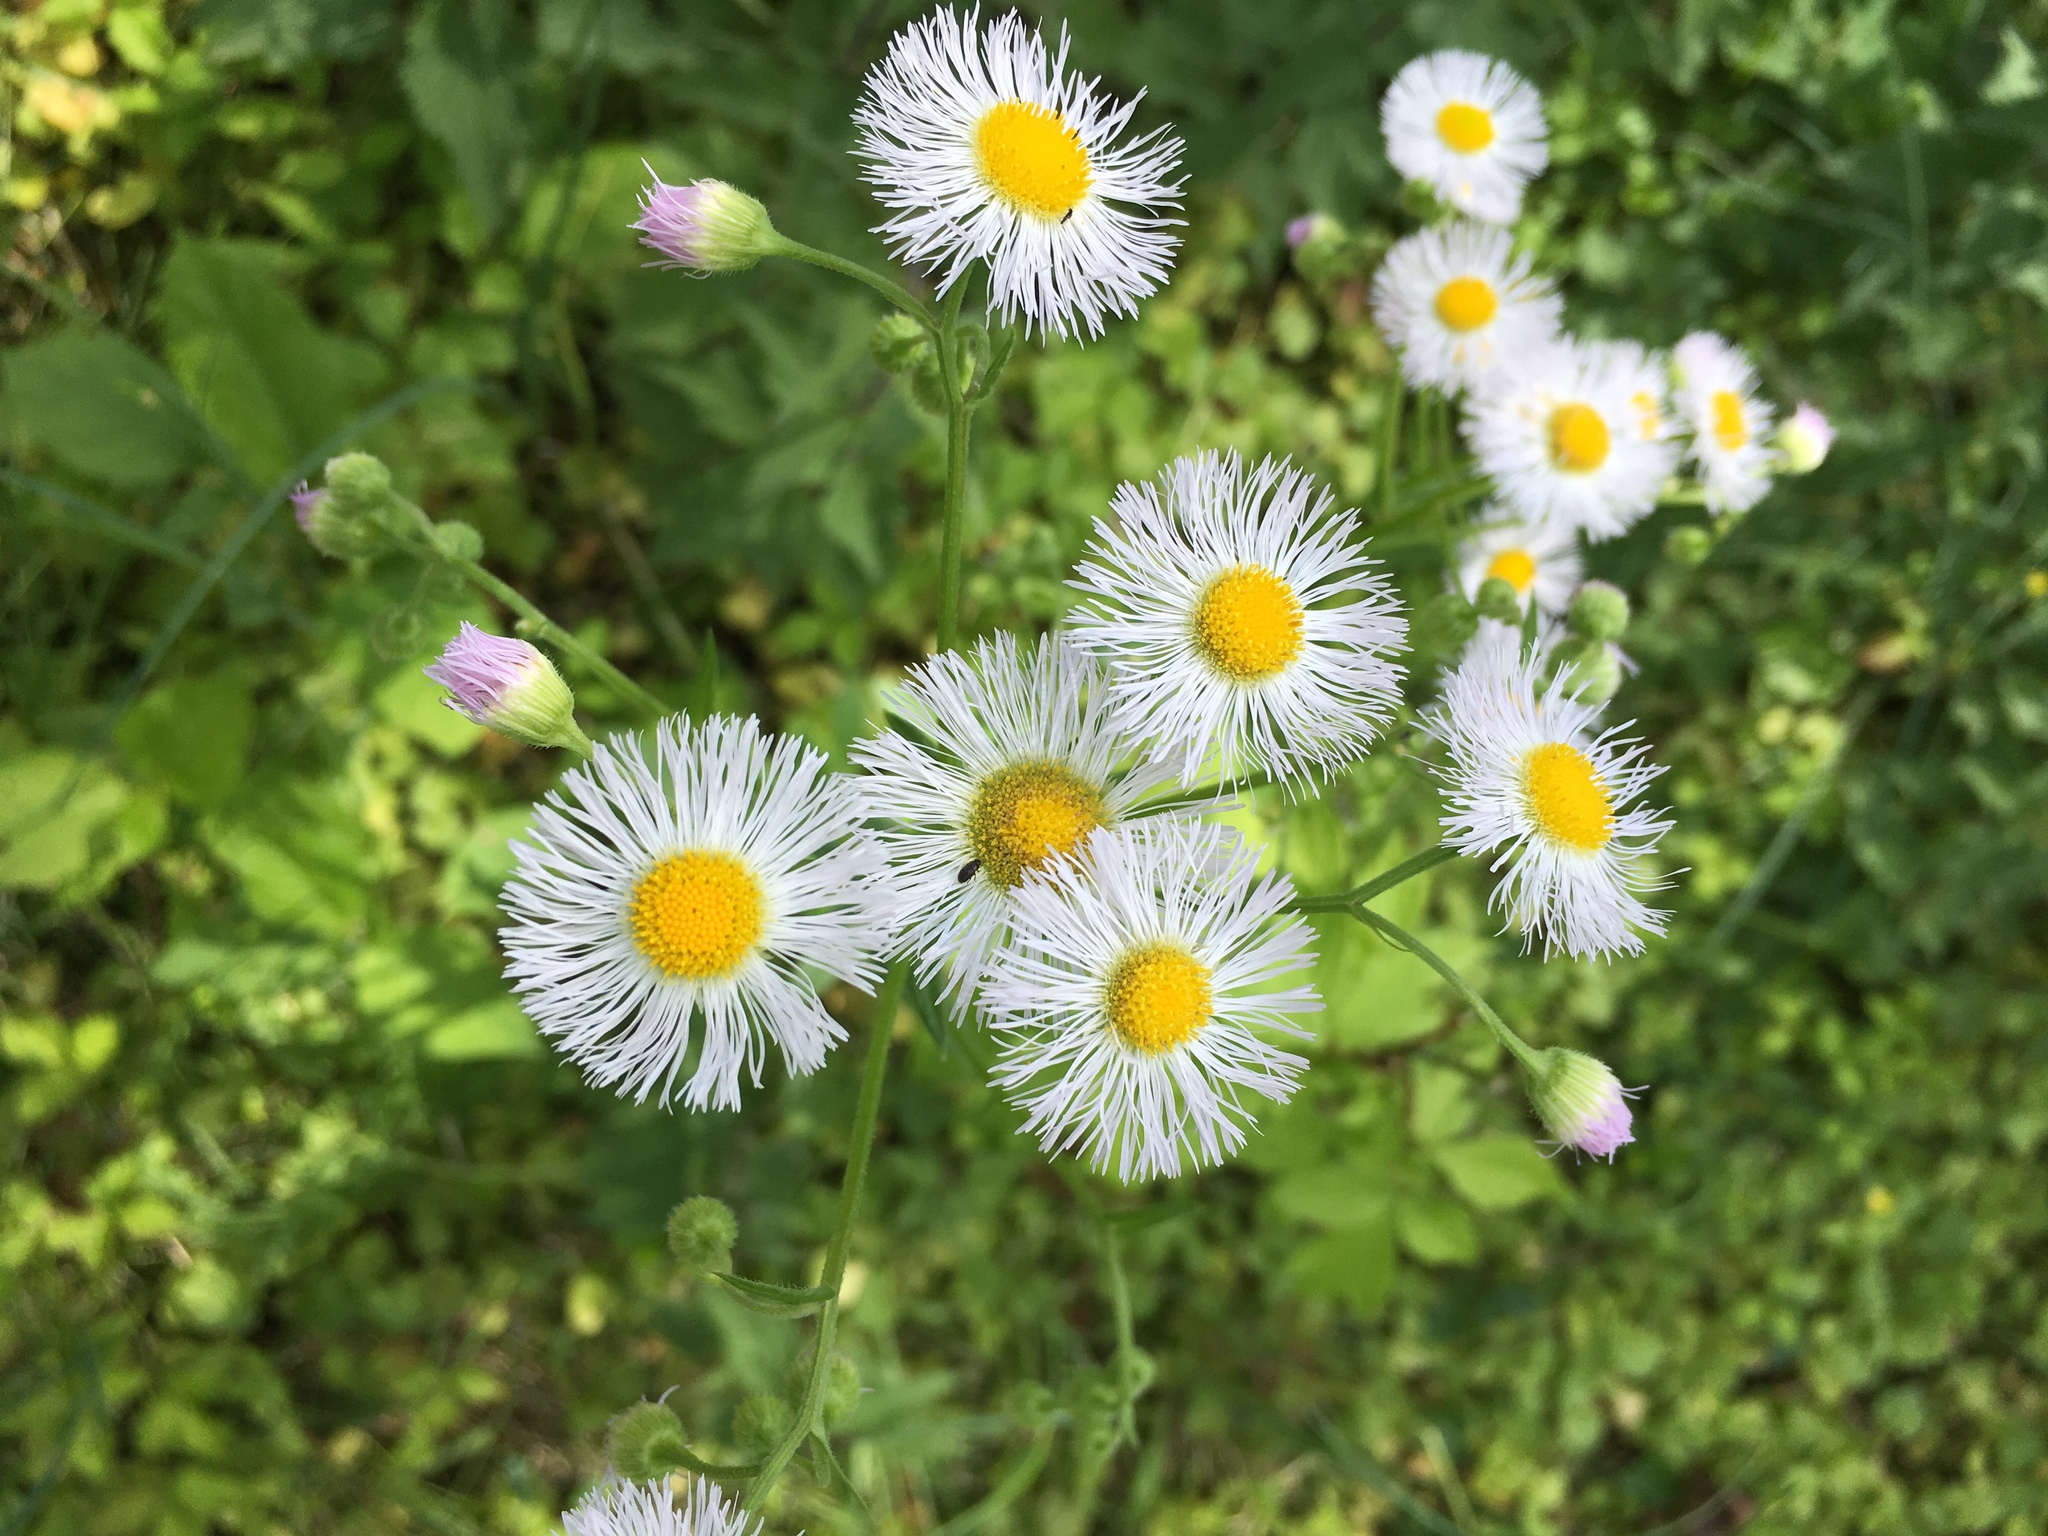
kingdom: Plantae
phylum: Tracheophyta
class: Magnoliopsida
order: Asterales
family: Asteraceae
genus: Erigeron
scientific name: Erigeron philadelphicus
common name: Robin's-plantain
